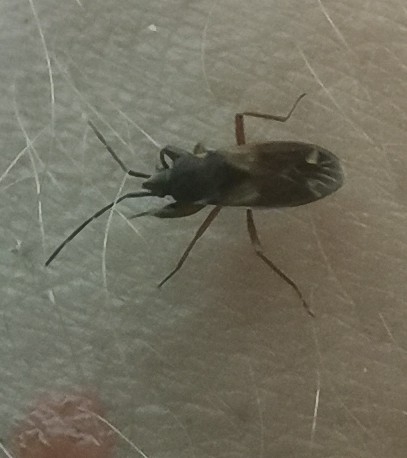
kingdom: Animalia
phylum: Arthropoda
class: Insecta
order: Hemiptera
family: Rhyparochromidae
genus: Eremocoris
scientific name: Eremocoris abietis
